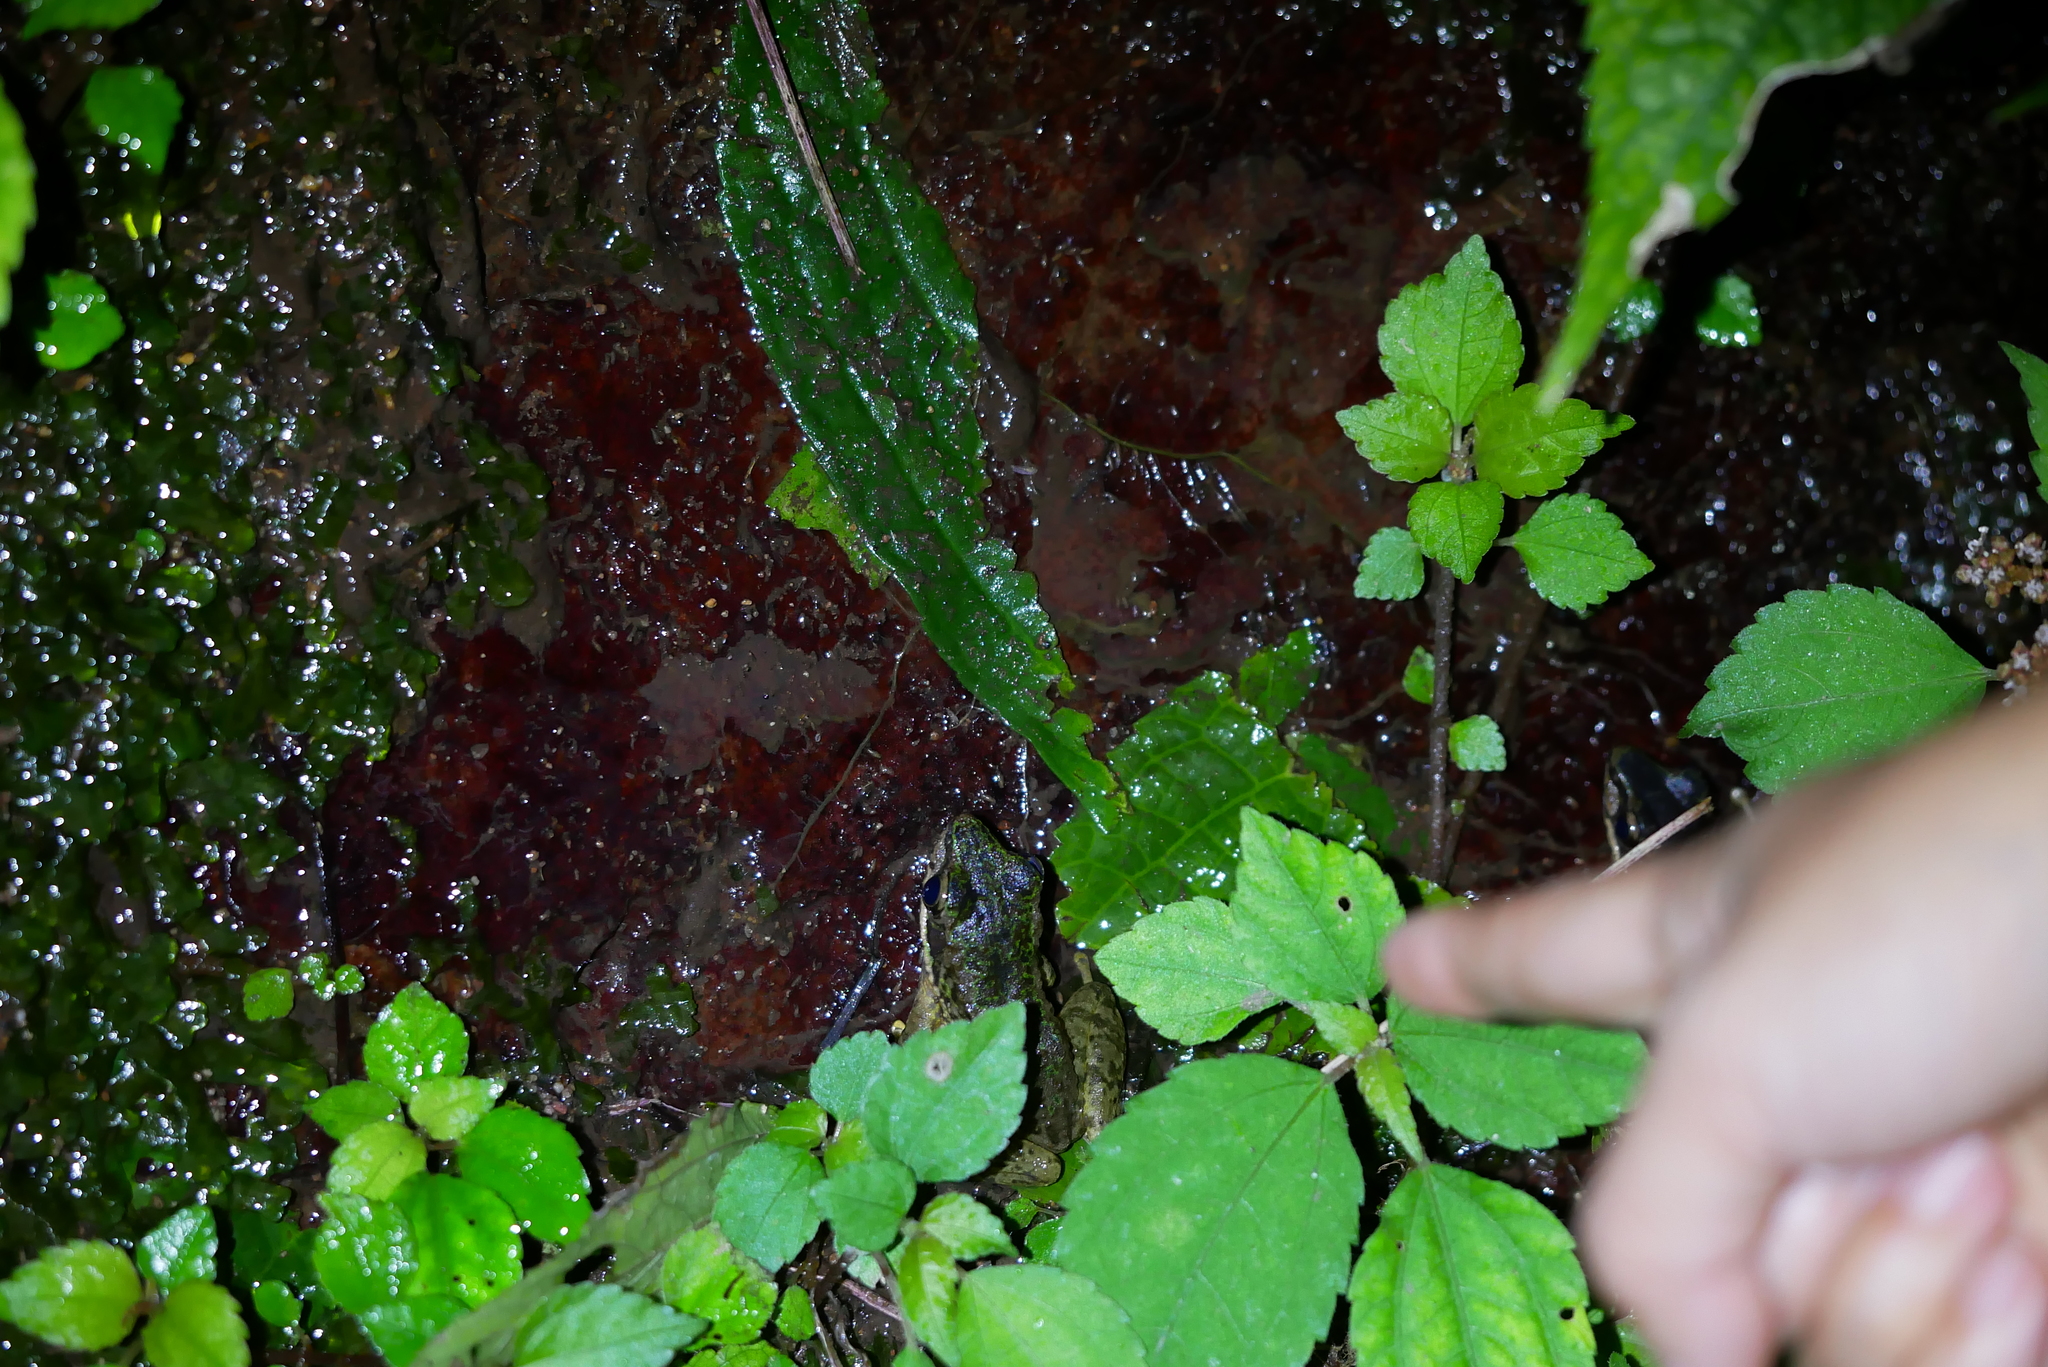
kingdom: Animalia
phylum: Chordata
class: Amphibia
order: Anura
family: Ranidae
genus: Odorrana
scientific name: Odorrana swinhoana
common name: Bangkimtsing frog
